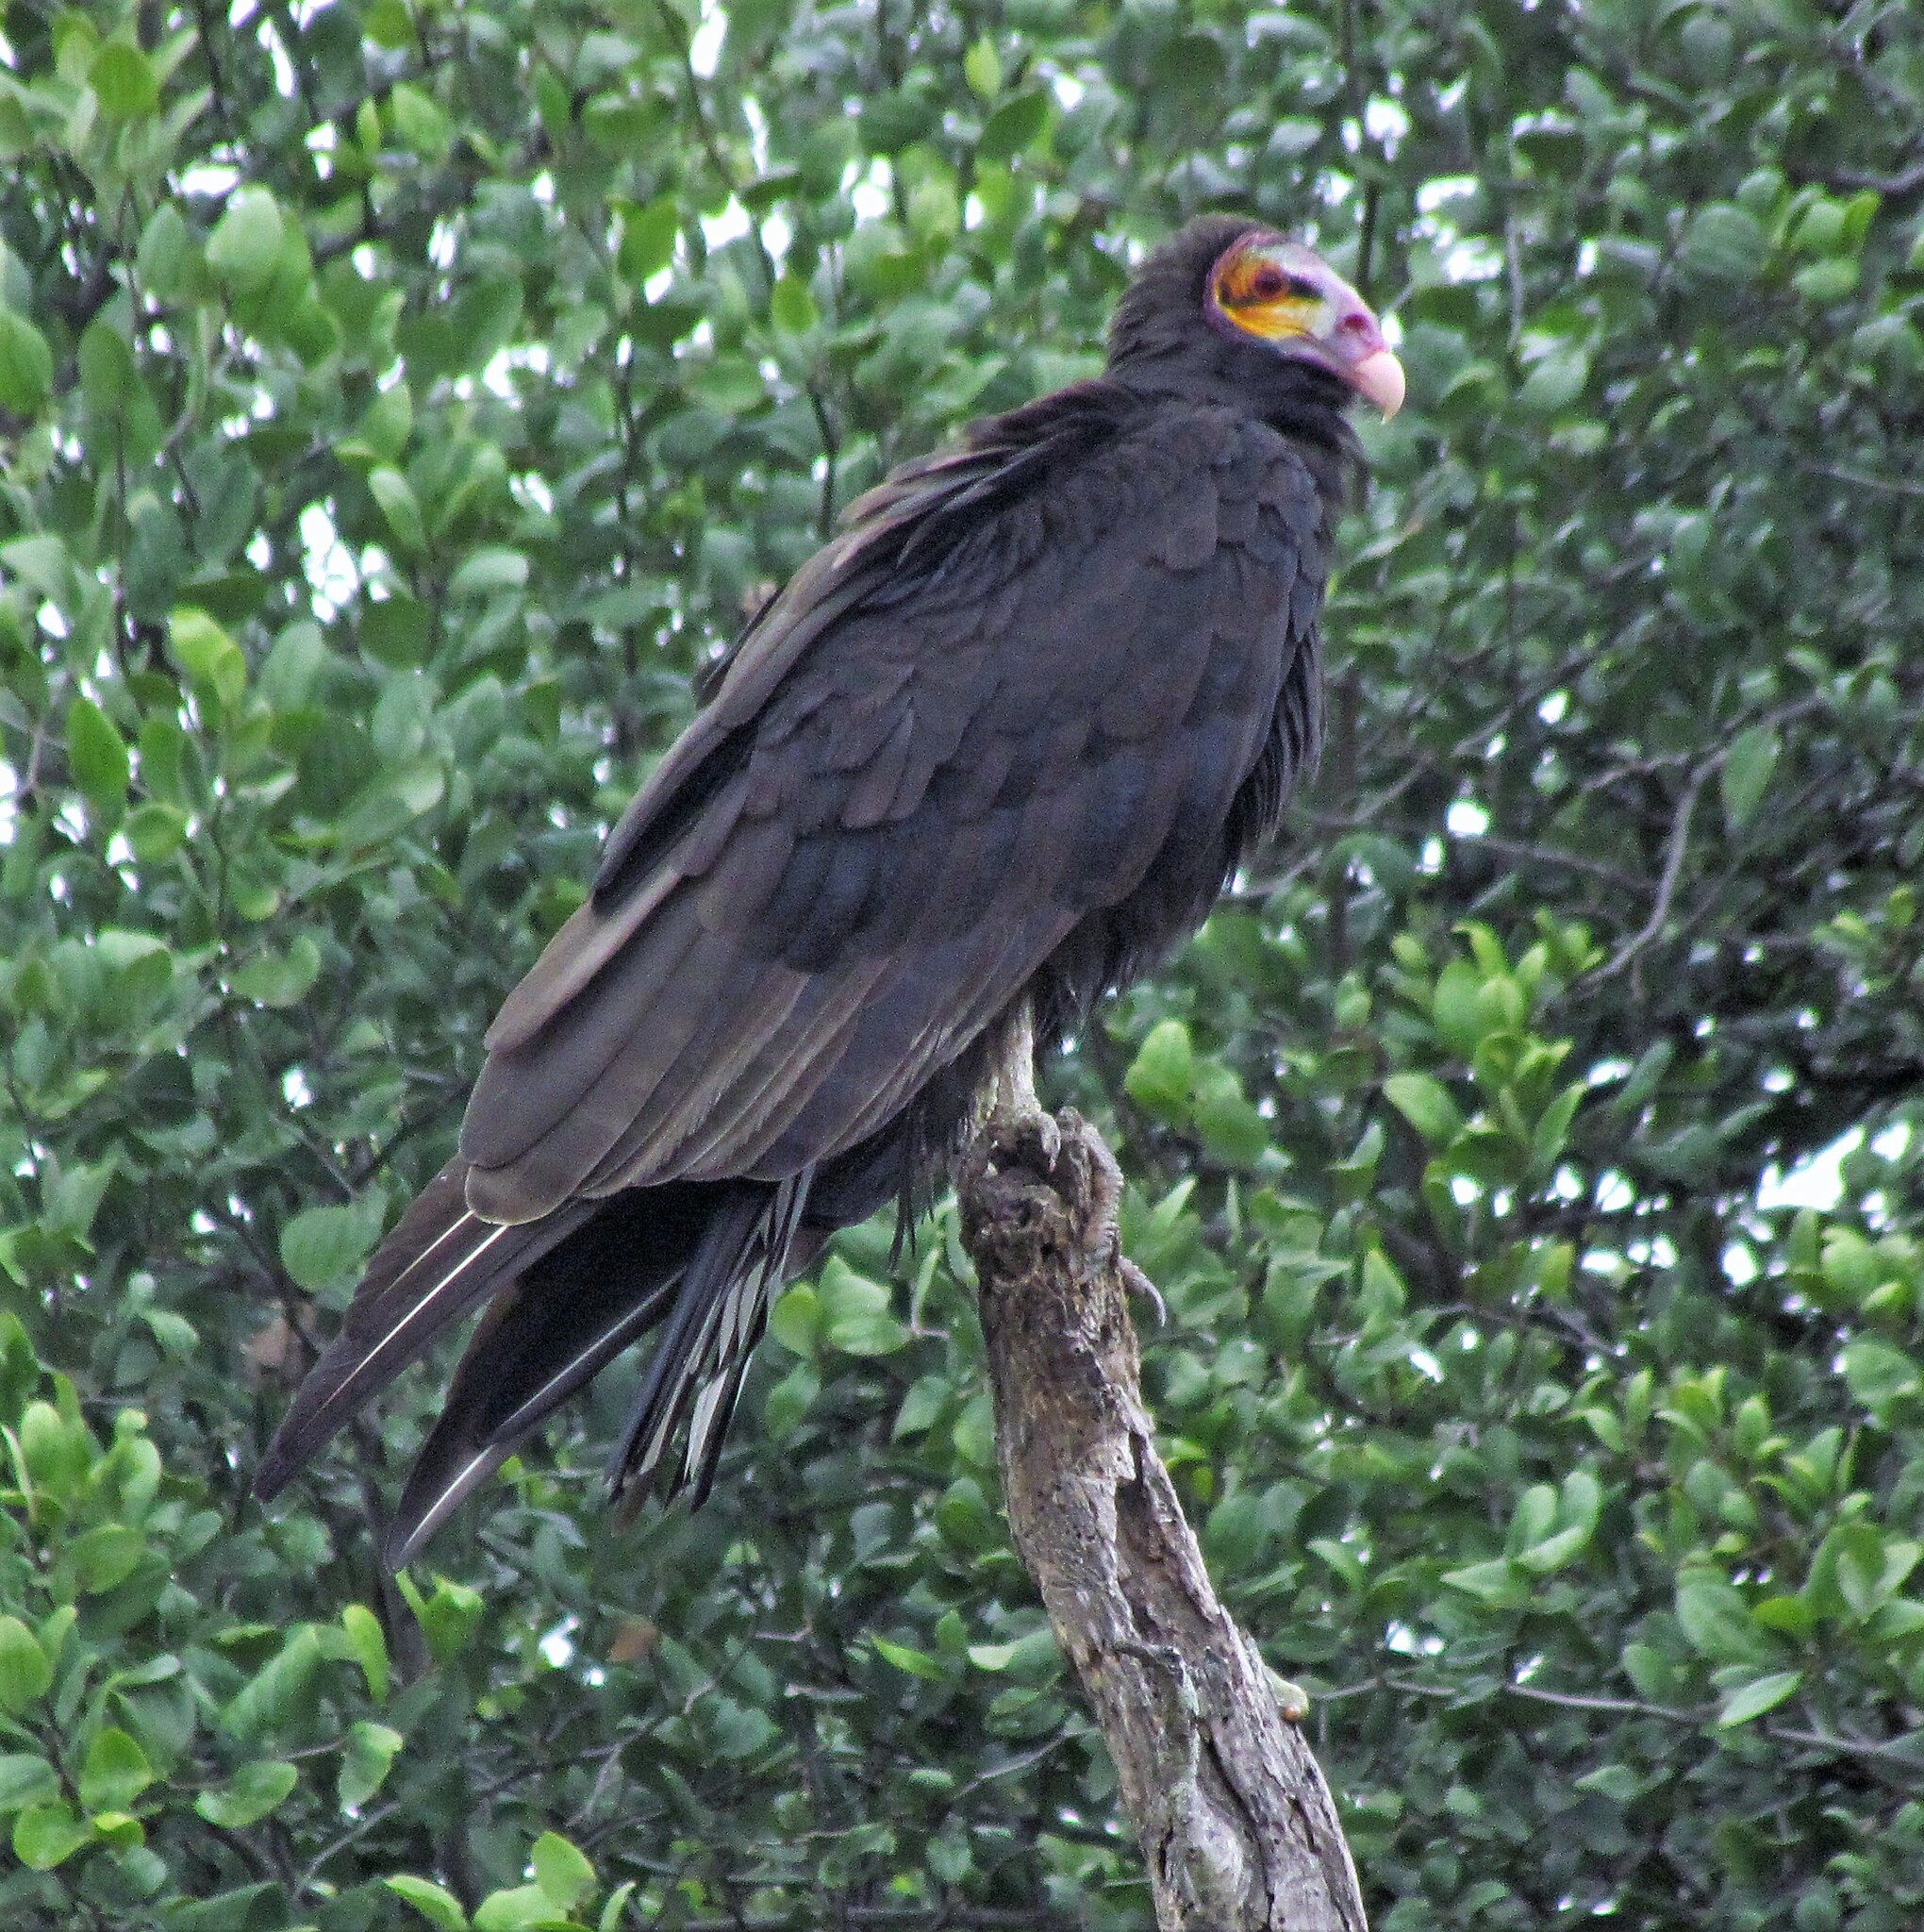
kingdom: Animalia
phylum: Chordata
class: Aves
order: Accipitriformes
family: Cathartidae
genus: Cathartes
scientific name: Cathartes burrovianus
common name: Lesser yellow-headed vulture
